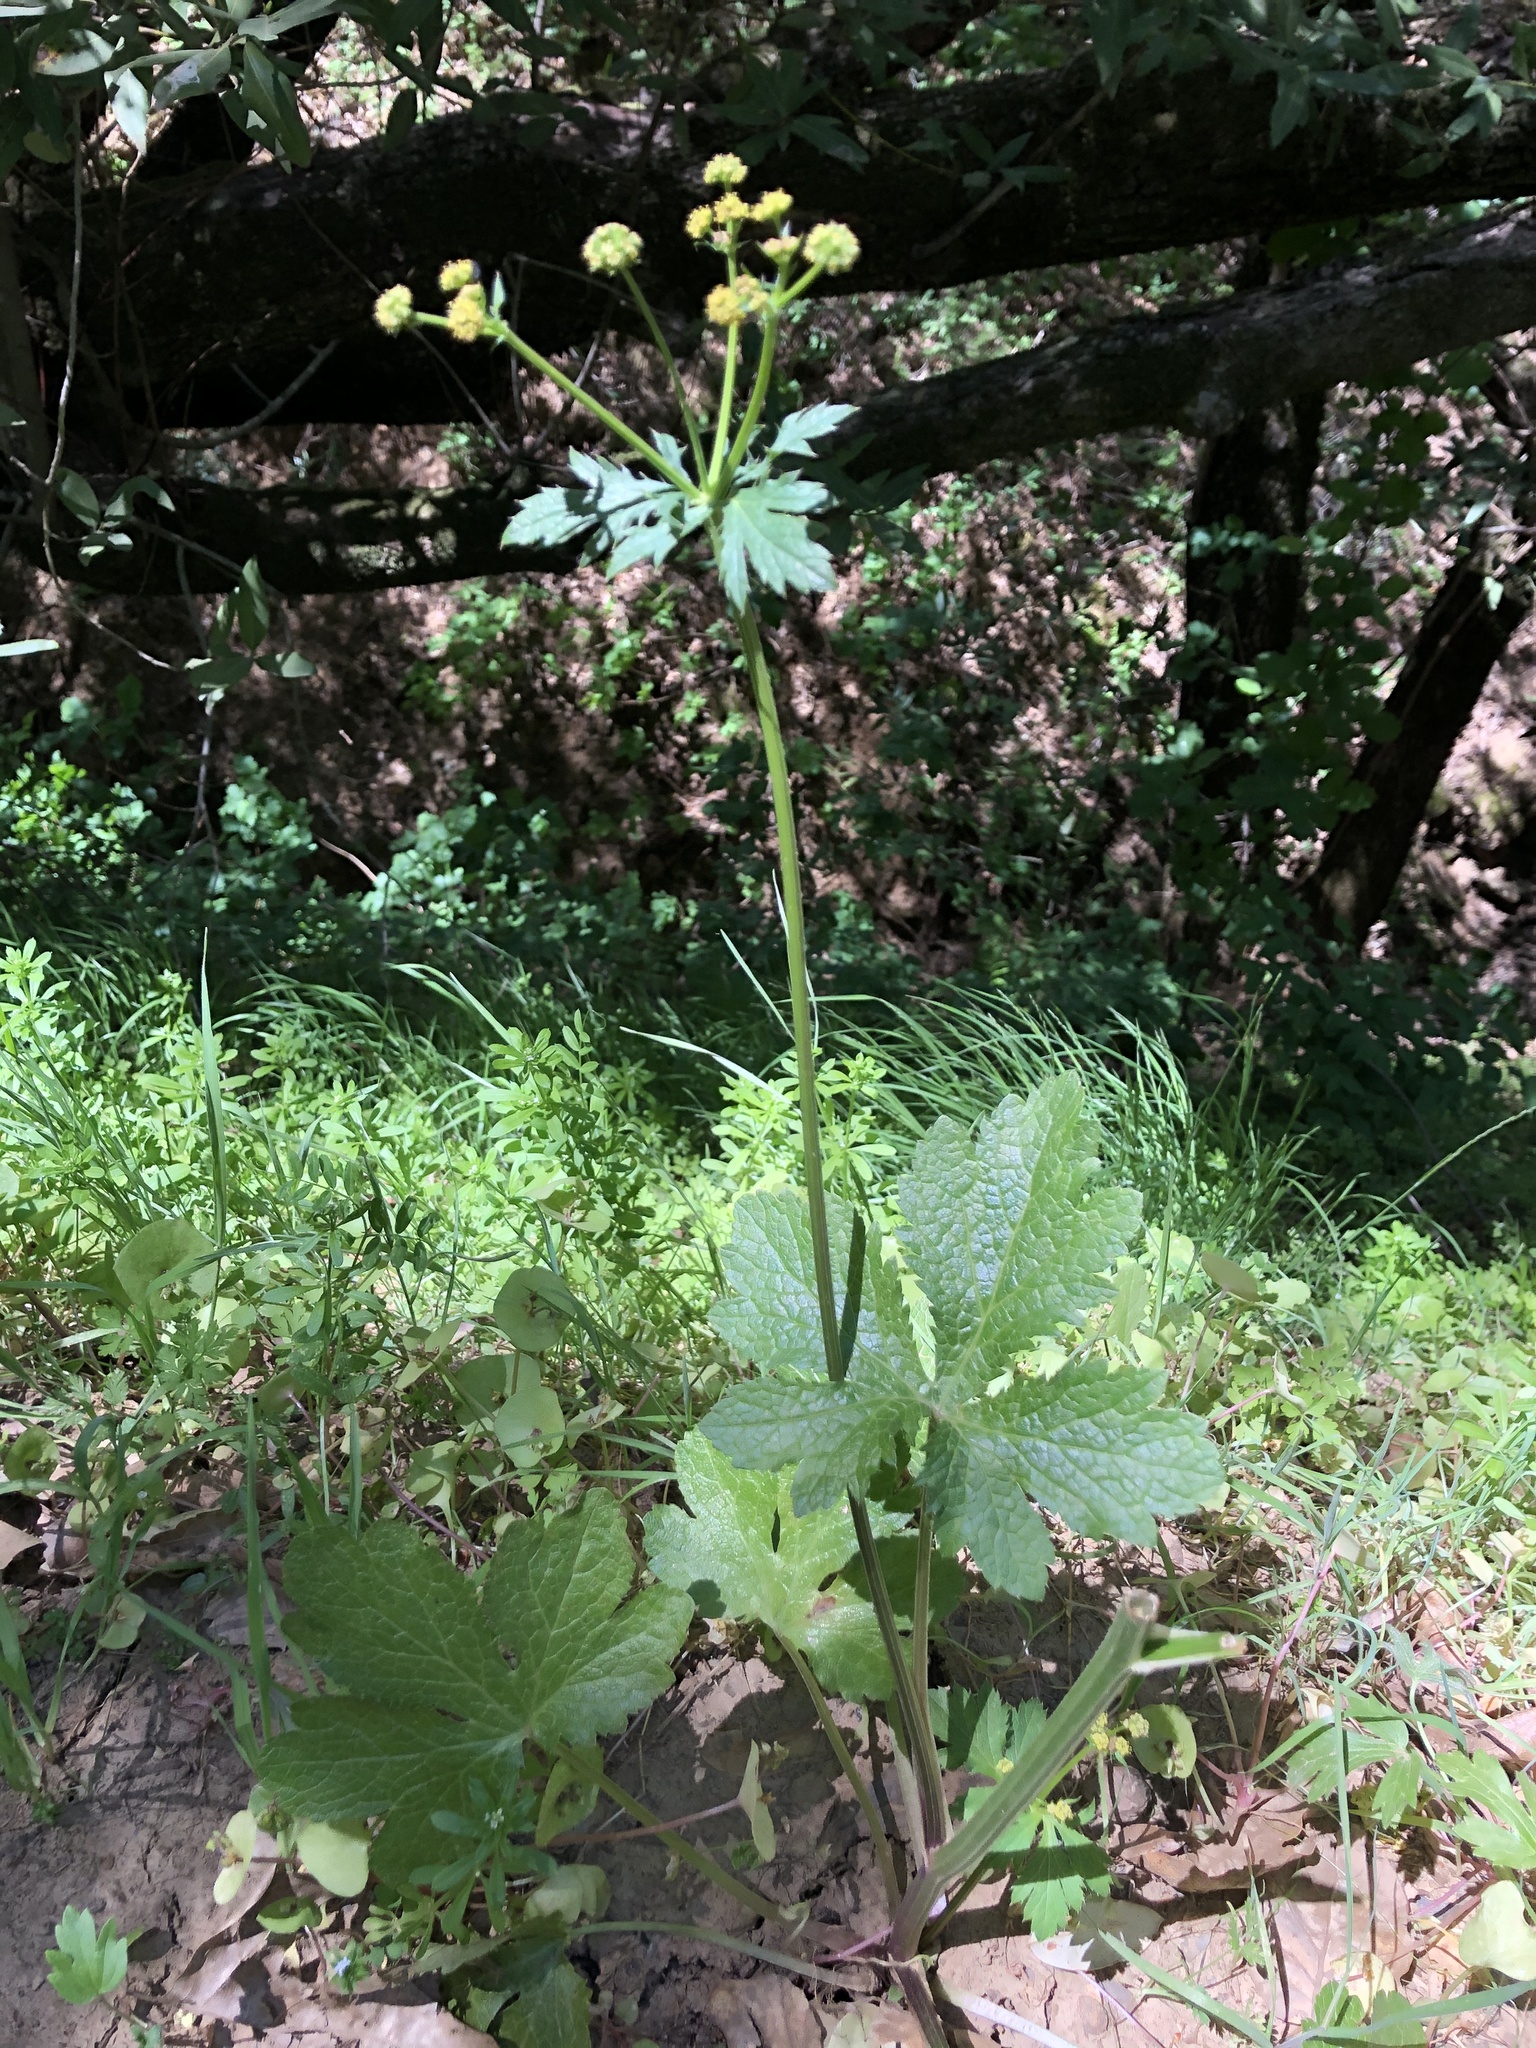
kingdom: Plantae
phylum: Tracheophyta
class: Magnoliopsida
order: Apiales
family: Apiaceae
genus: Sanicula
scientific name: Sanicula crassicaulis
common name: Western snakeroot
